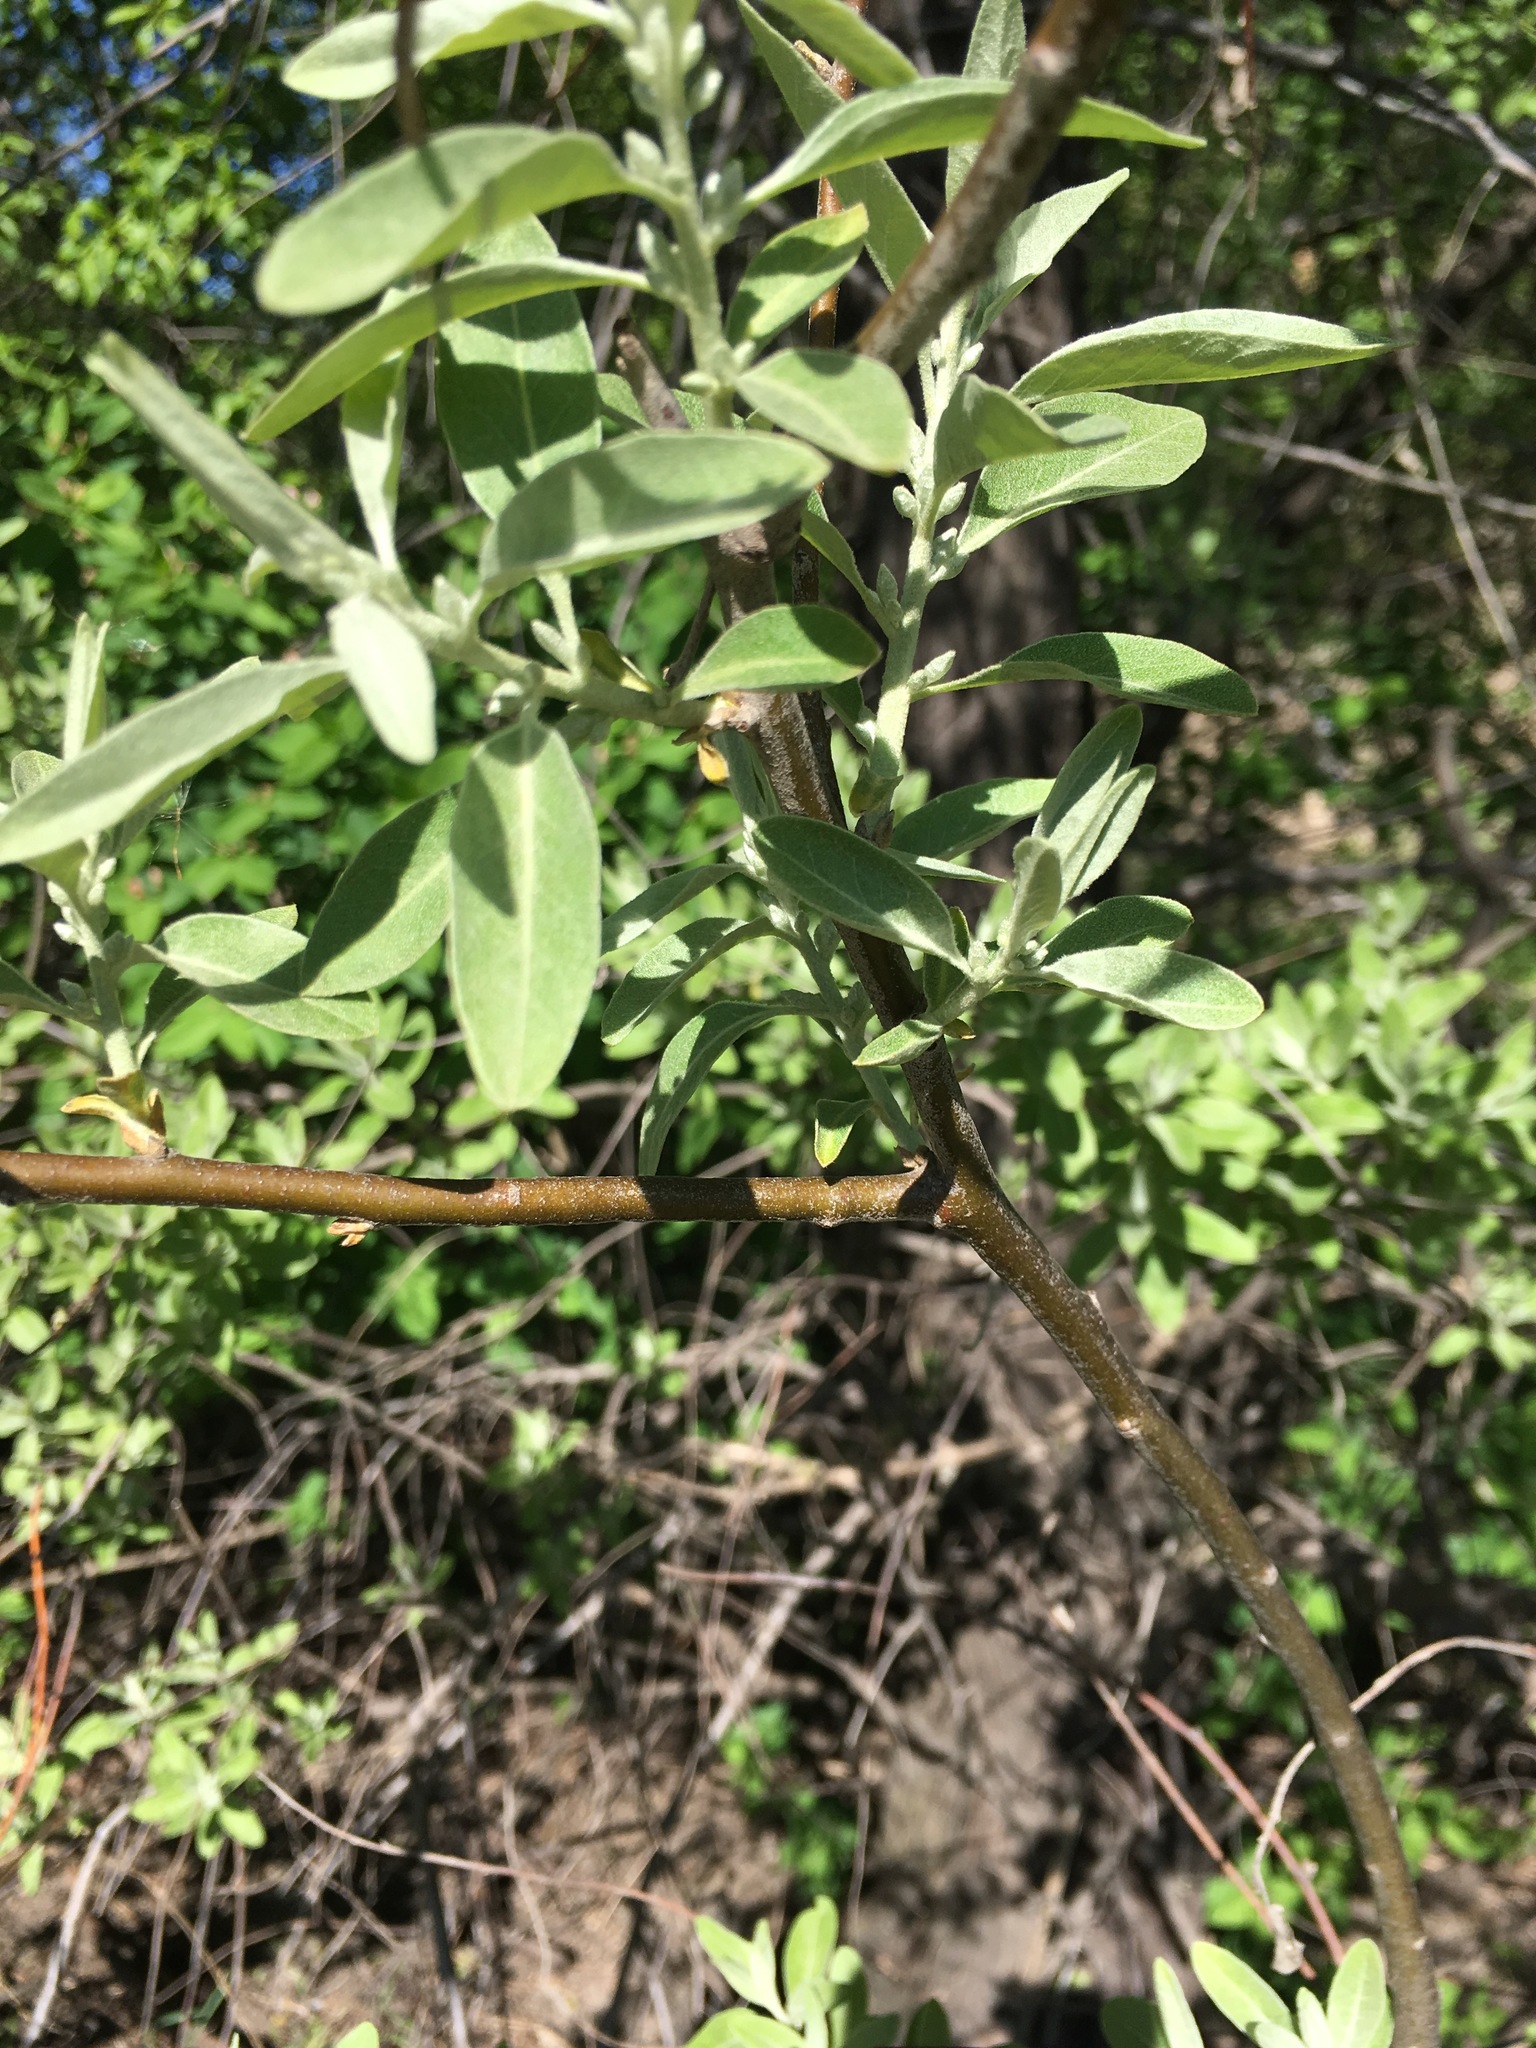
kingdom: Plantae
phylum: Tracheophyta
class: Magnoliopsida
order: Rosales
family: Elaeagnaceae
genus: Elaeagnus
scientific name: Elaeagnus angustifolia
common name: Russian olive
